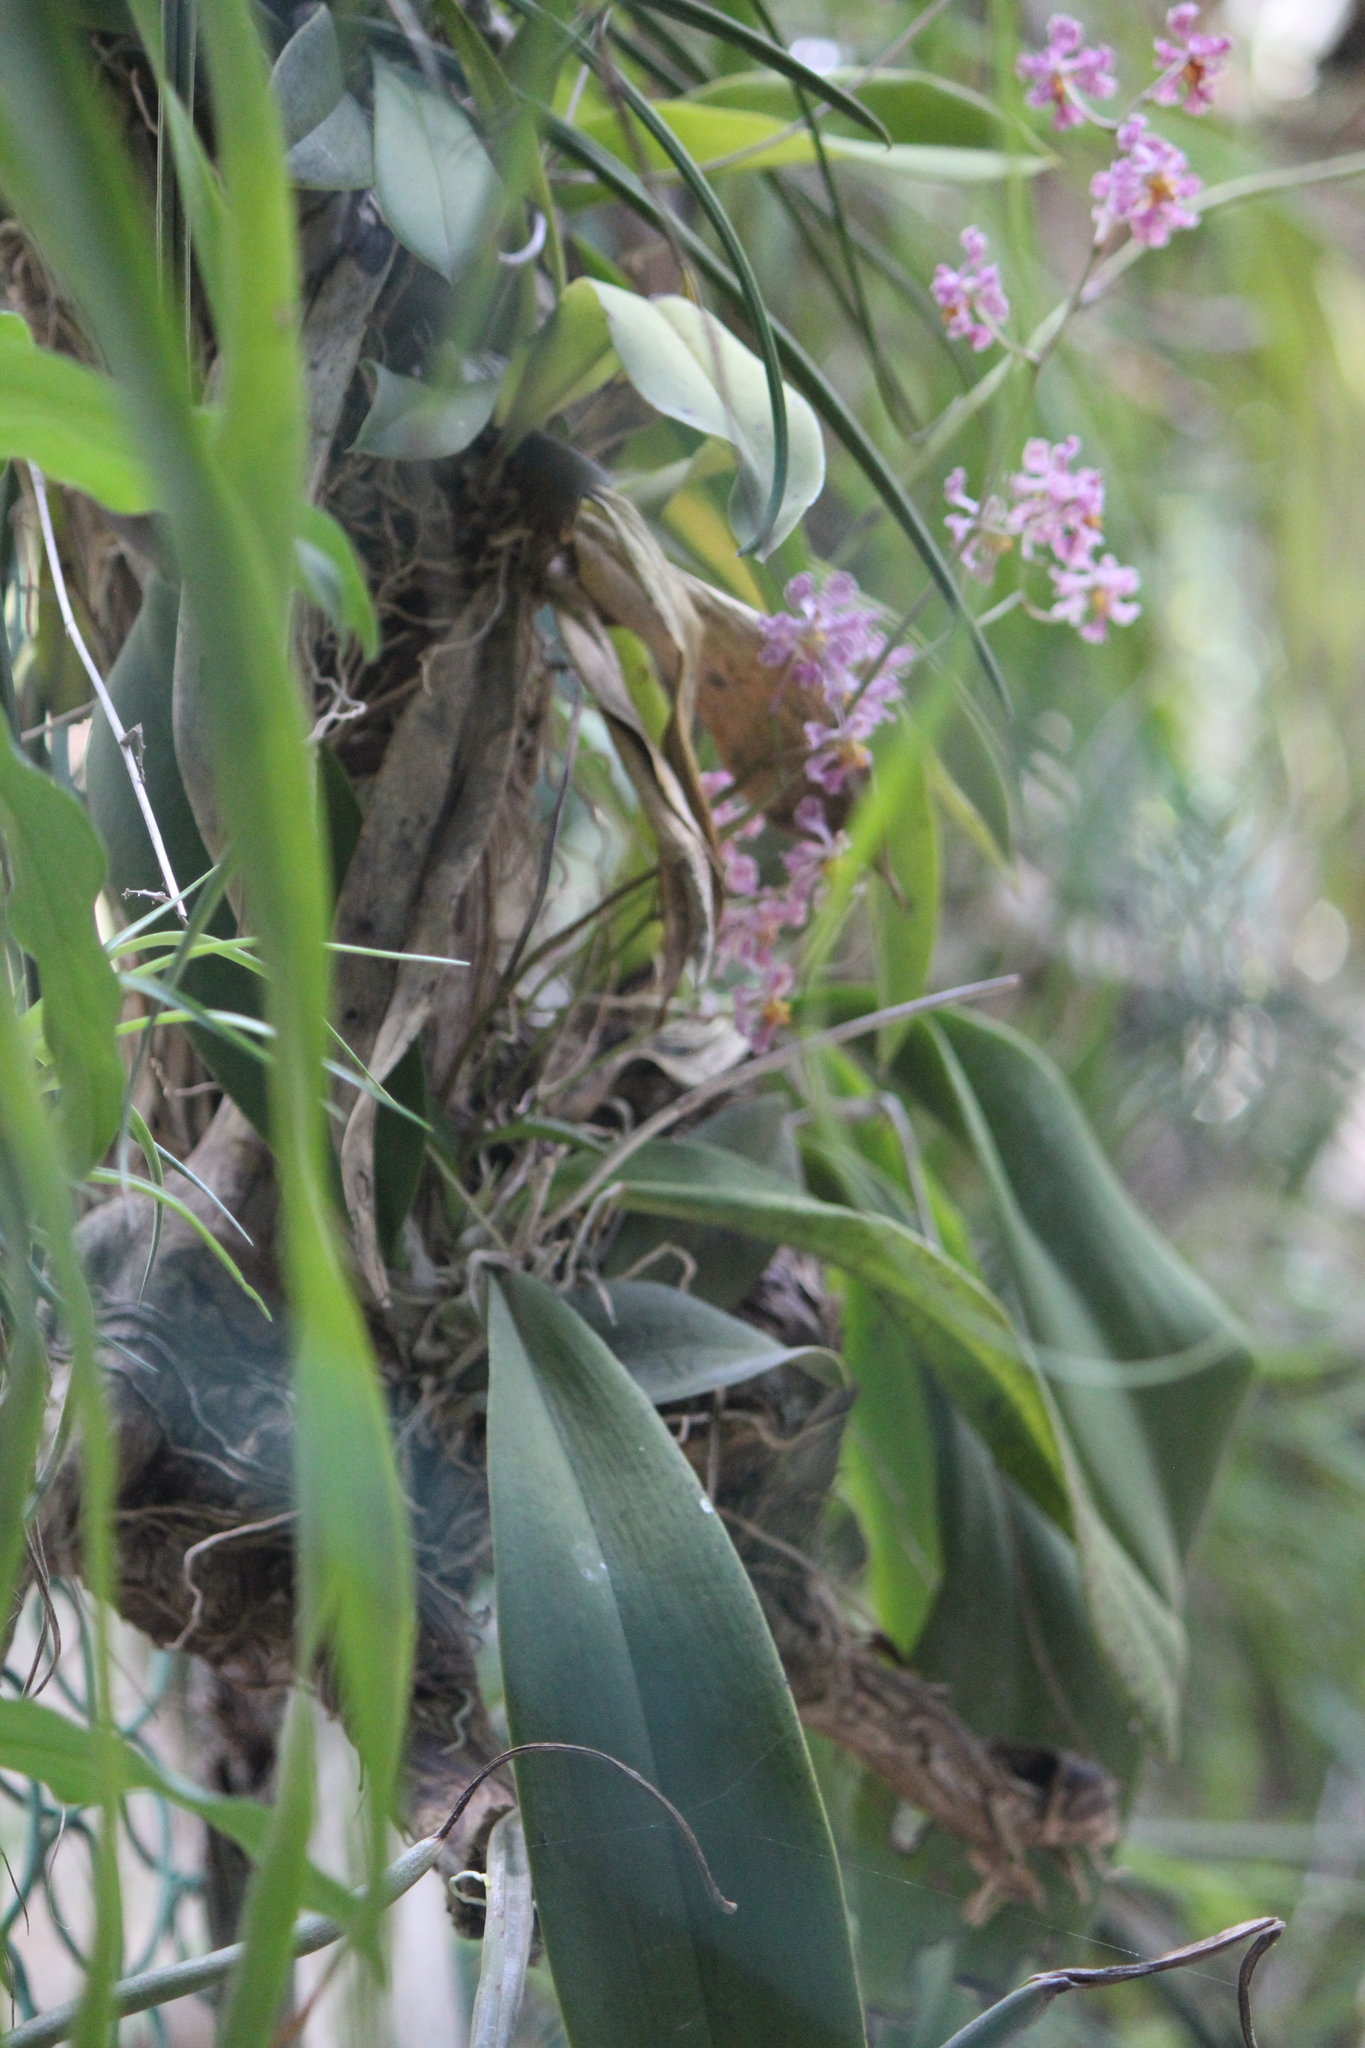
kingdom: Plantae
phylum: Tracheophyta
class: Liliopsida
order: Asparagales
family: Orchidaceae
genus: Trichocentrum
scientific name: Trichocentrum andrewsiae
